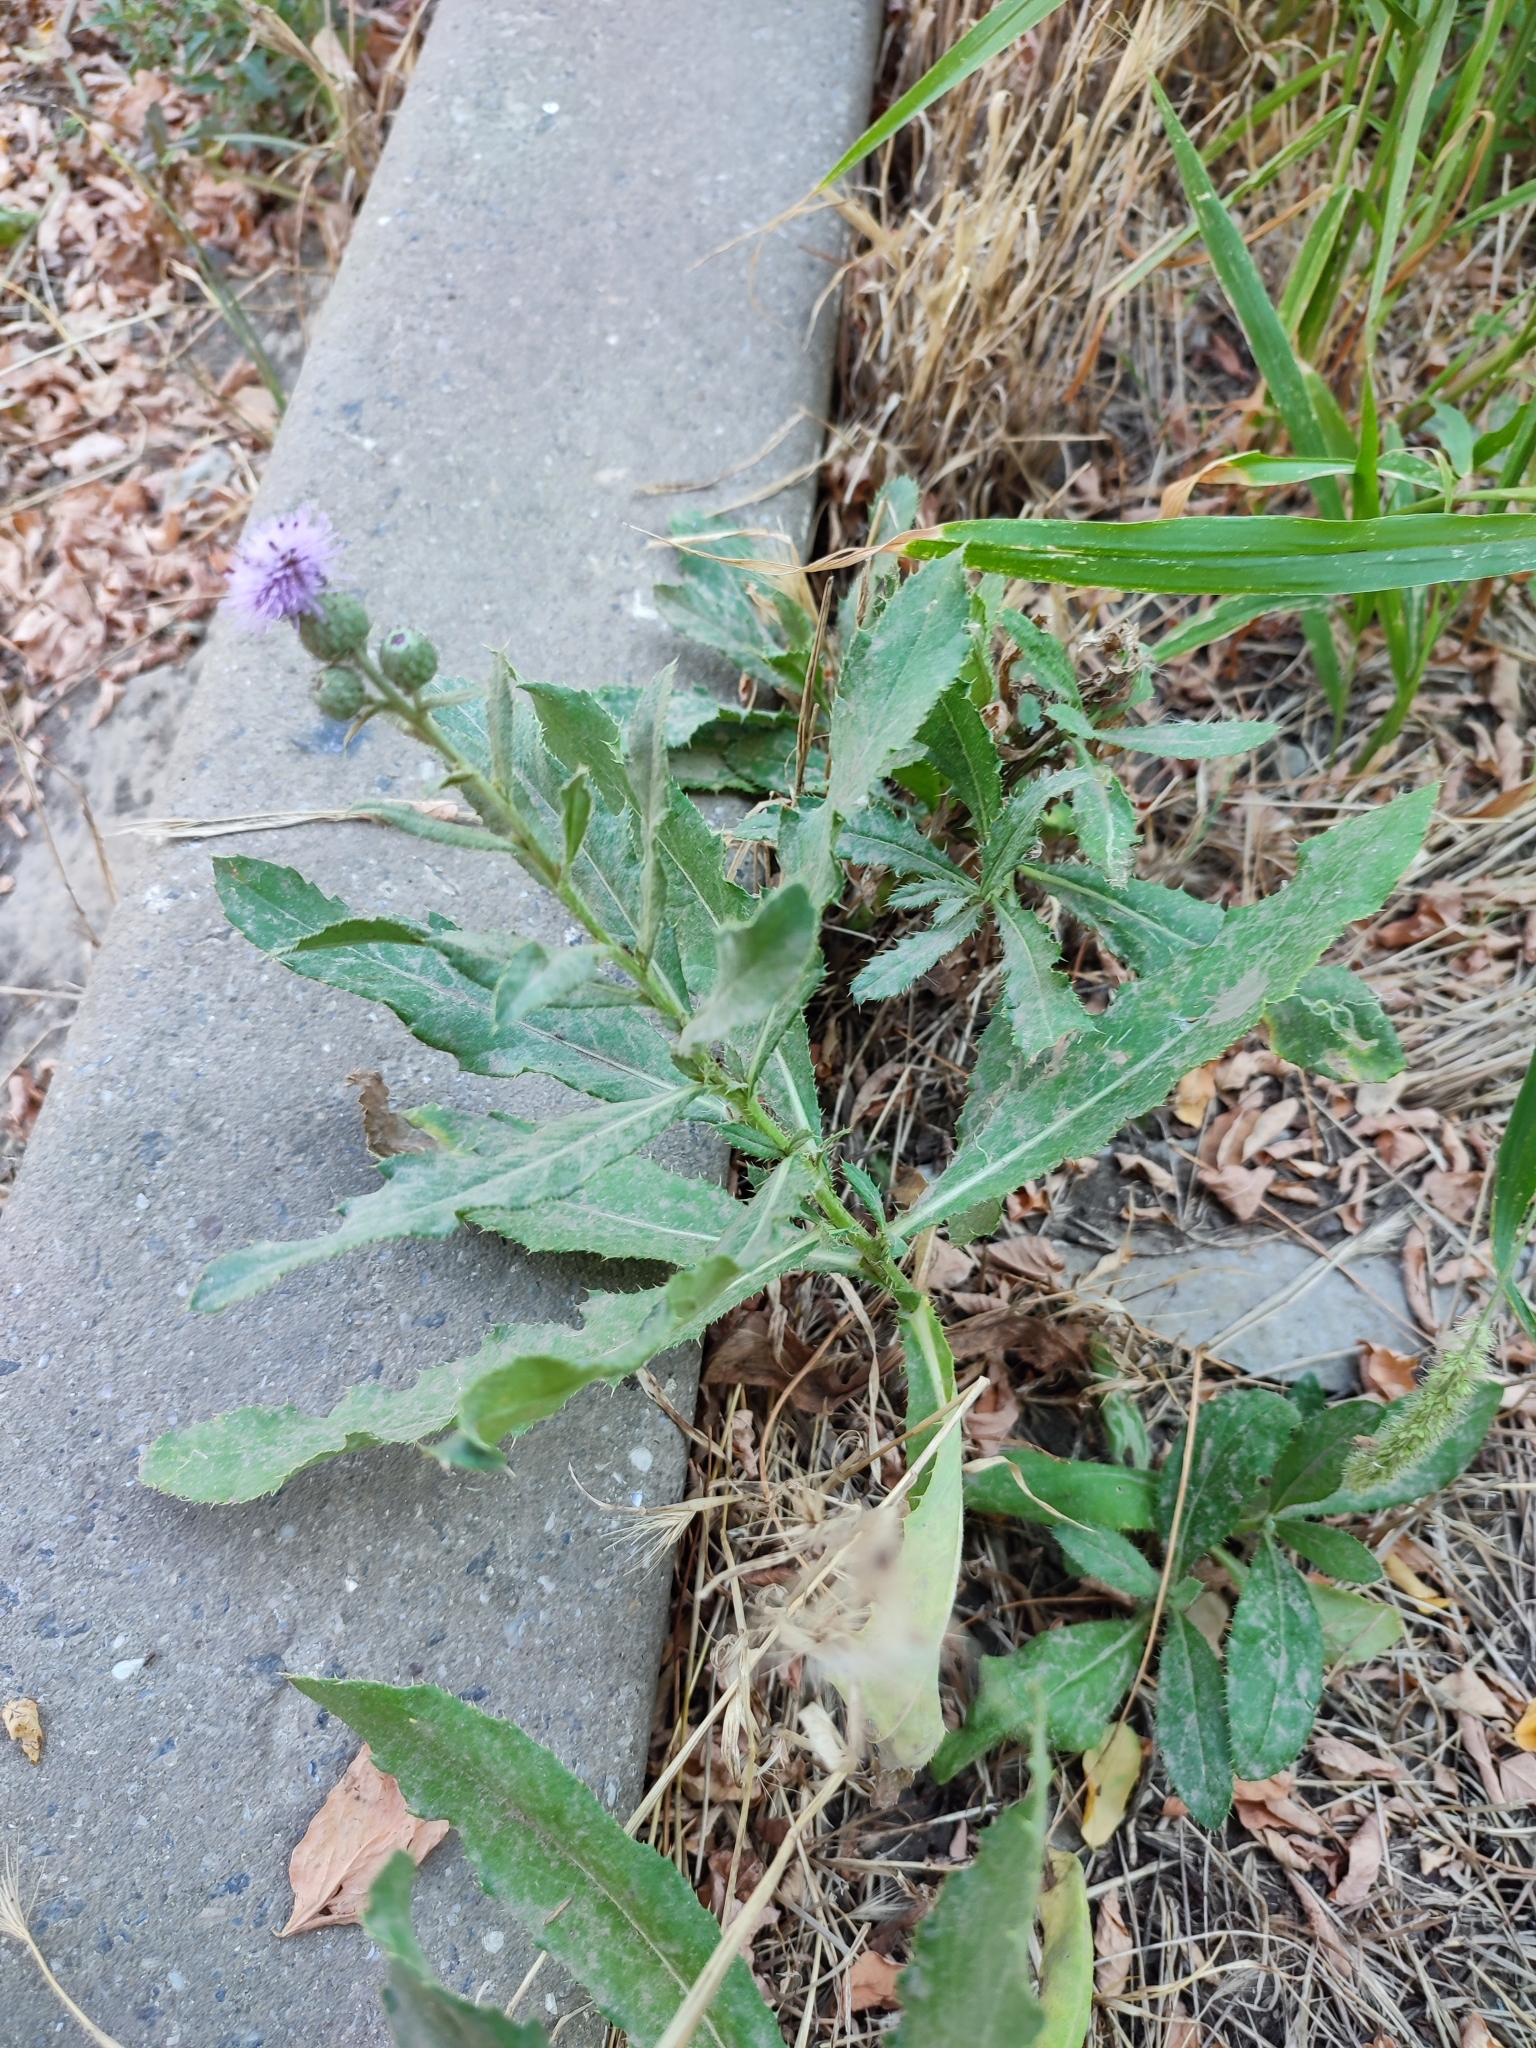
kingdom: Plantae
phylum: Tracheophyta
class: Magnoliopsida
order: Asterales
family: Asteraceae
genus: Cirsium
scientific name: Cirsium arvense
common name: Creeping thistle
